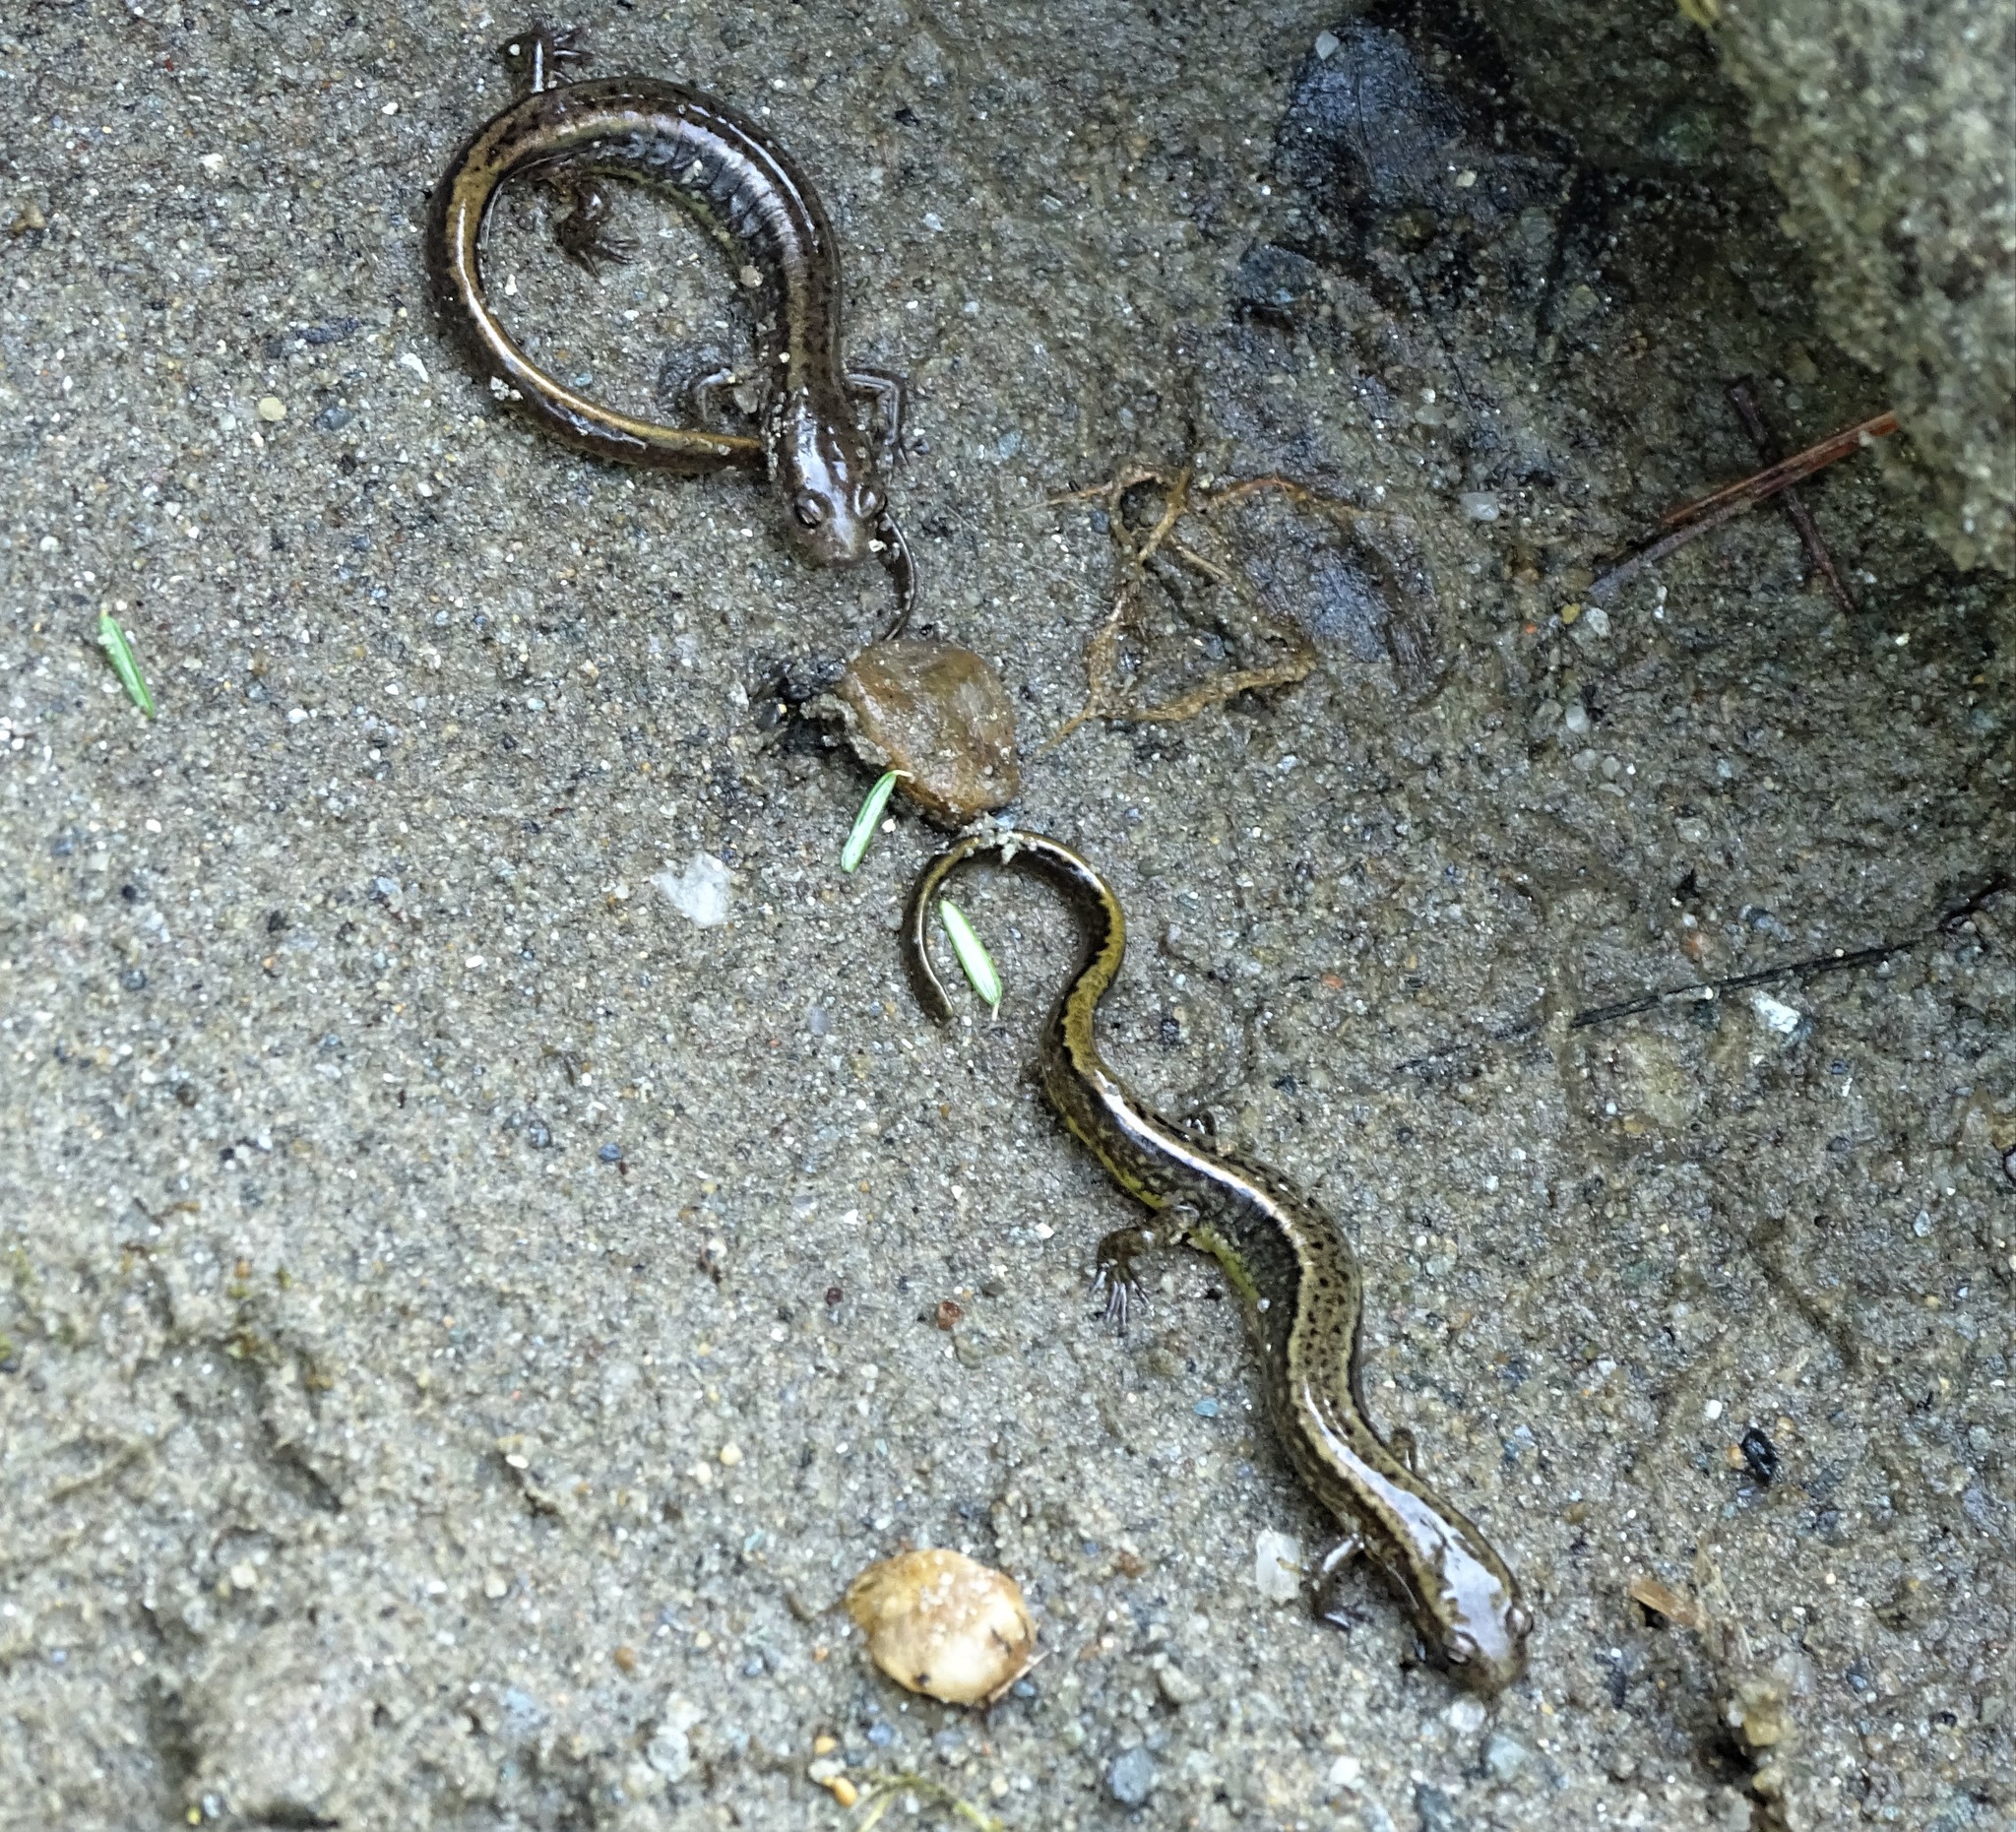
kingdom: Animalia
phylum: Chordata
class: Amphibia
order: Caudata
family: Plethodontidae
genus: Eurycea
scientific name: Eurycea bislineata
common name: Northern two-lined salamander
